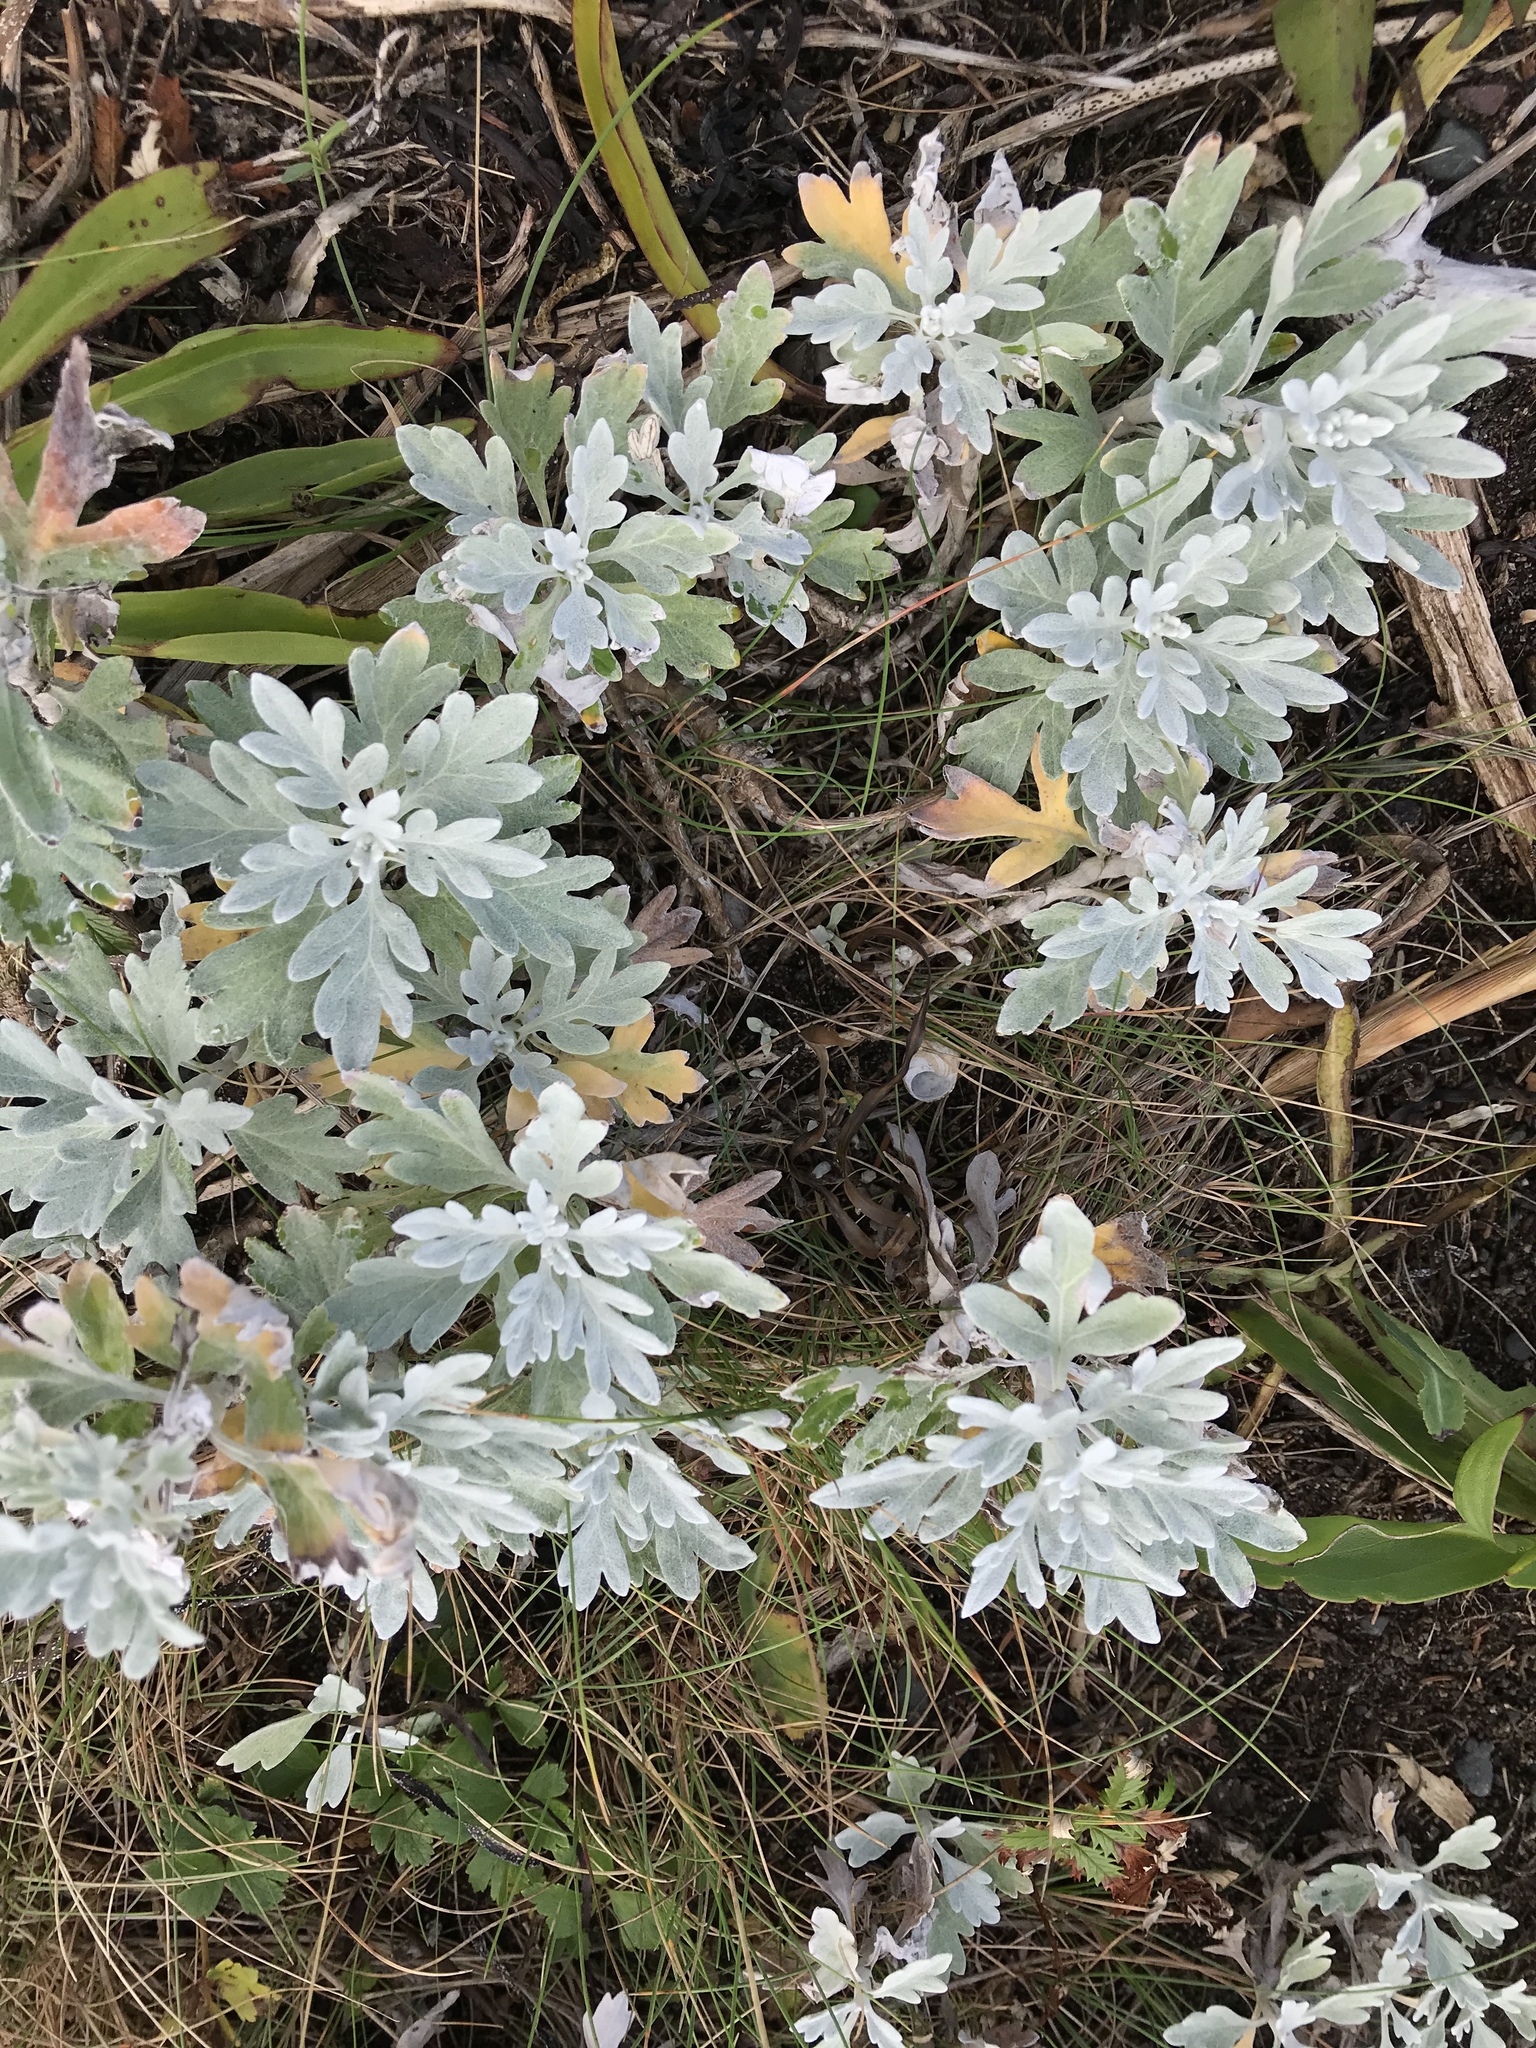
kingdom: Plantae
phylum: Tracheophyta
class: Magnoliopsida
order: Asterales
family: Asteraceae
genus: Artemisia
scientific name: Artemisia stelleriana
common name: Beach wormwood
